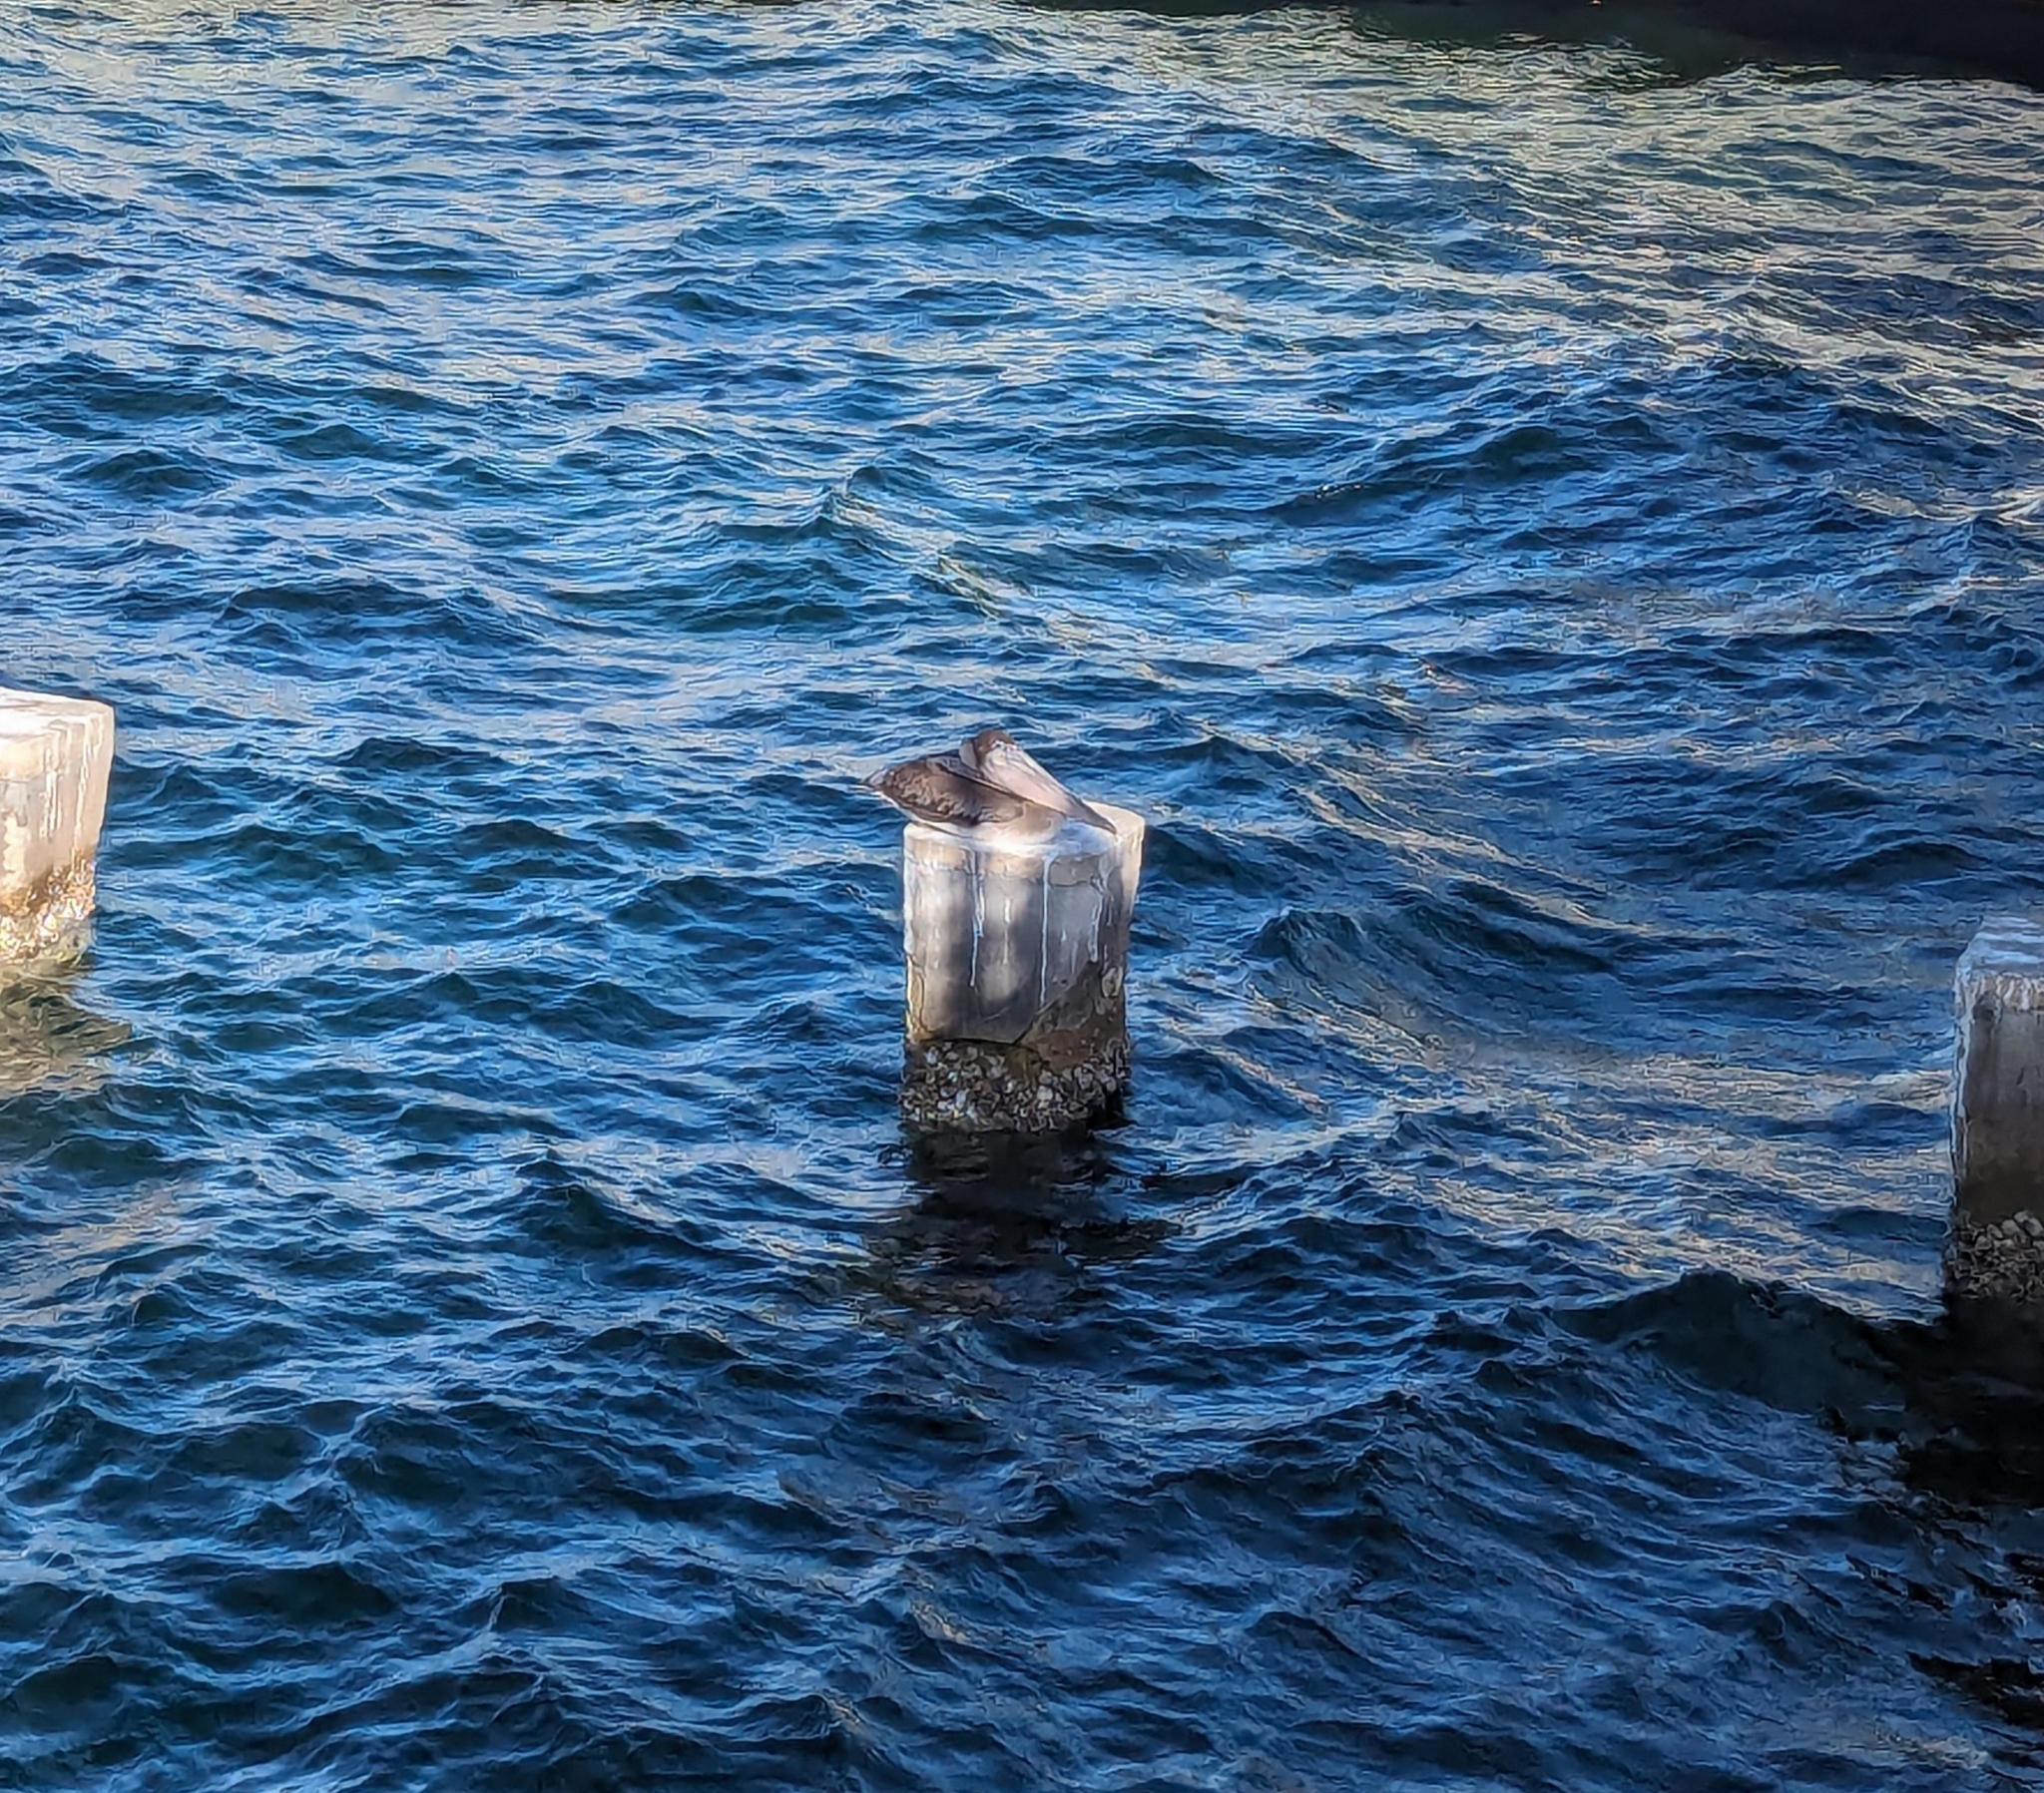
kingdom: Animalia
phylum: Chordata
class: Aves
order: Pelecaniformes
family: Pelecanidae
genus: Pelecanus
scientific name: Pelecanus occidentalis
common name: Brown pelican
